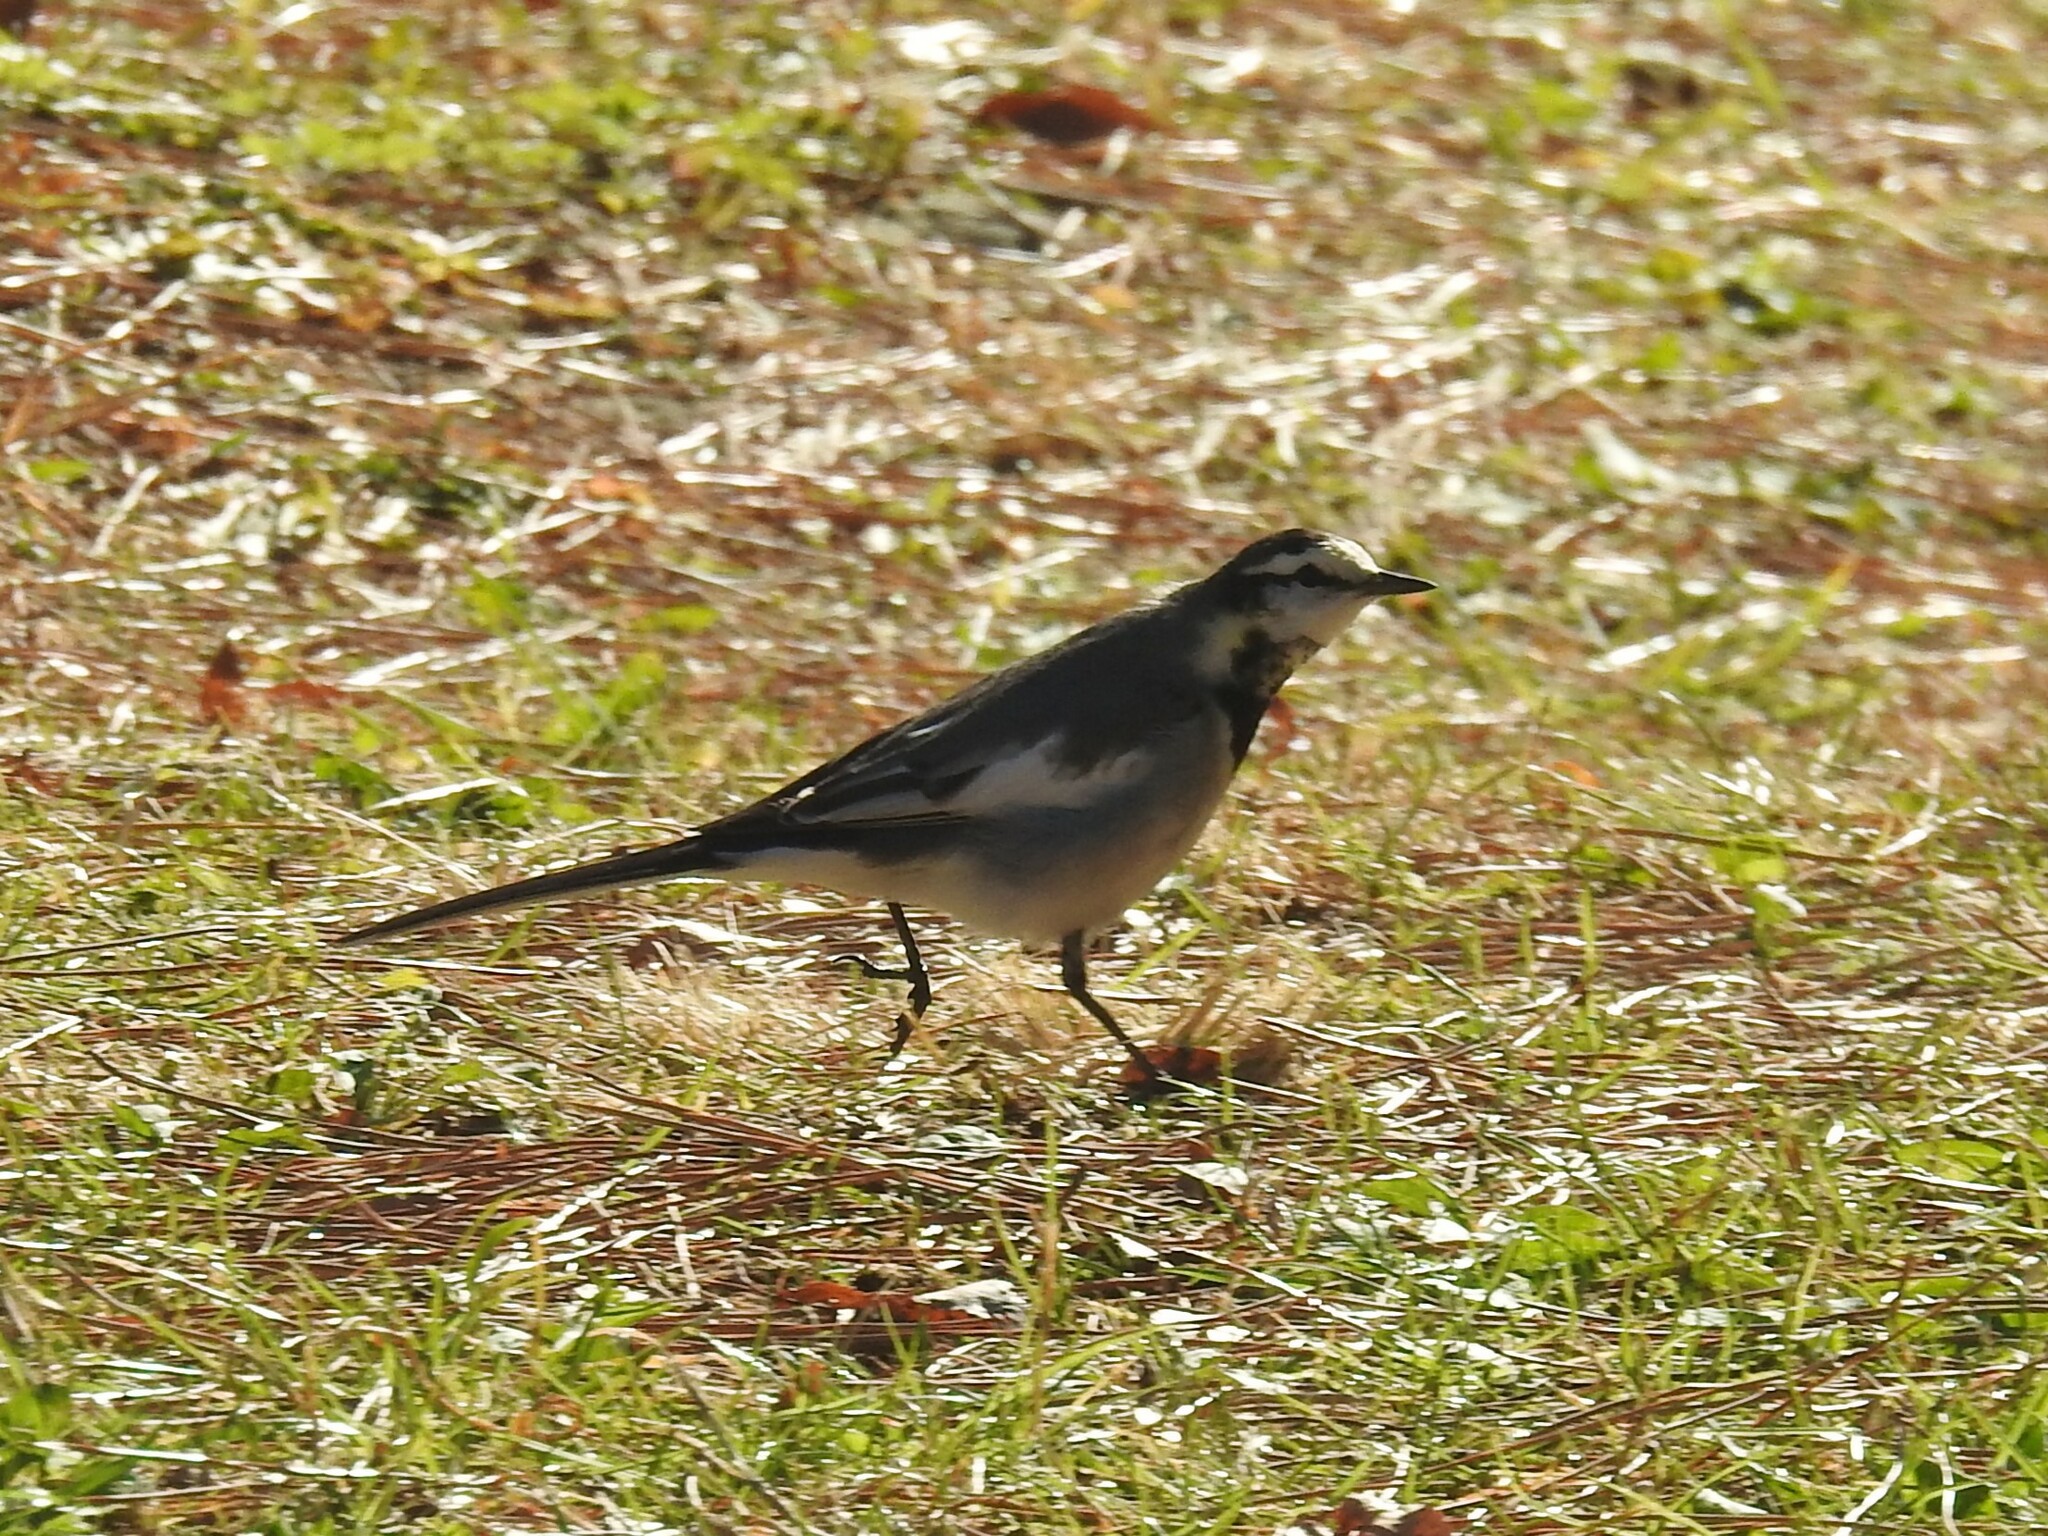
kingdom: Animalia
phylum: Chordata
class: Aves
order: Passeriformes
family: Motacillidae
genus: Motacilla
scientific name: Motacilla alba
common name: White wagtail
